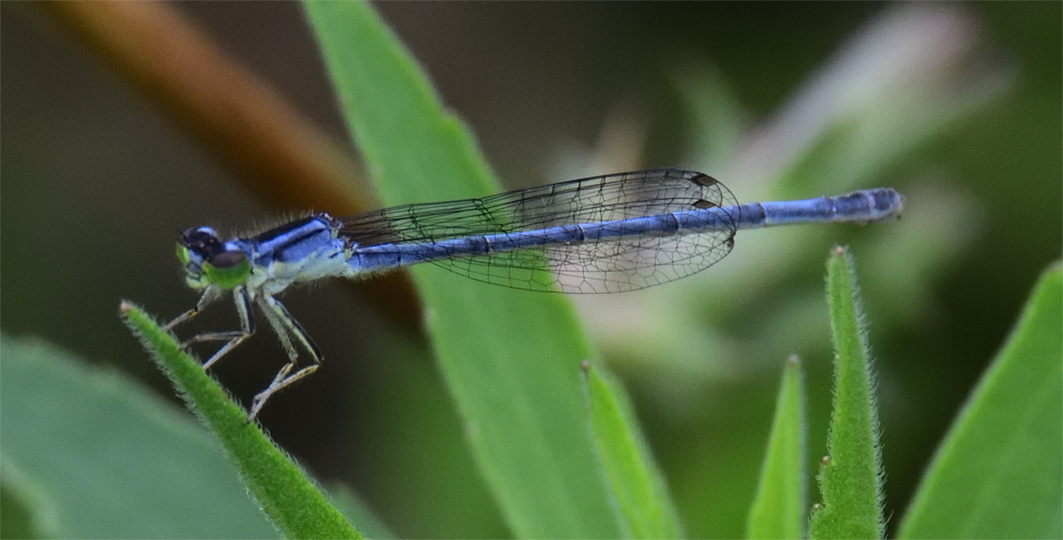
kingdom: Animalia
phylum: Arthropoda
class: Insecta
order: Odonata
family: Coenagrionidae
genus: Ischnura
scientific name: Ischnura verticalis
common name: Eastern forktail
